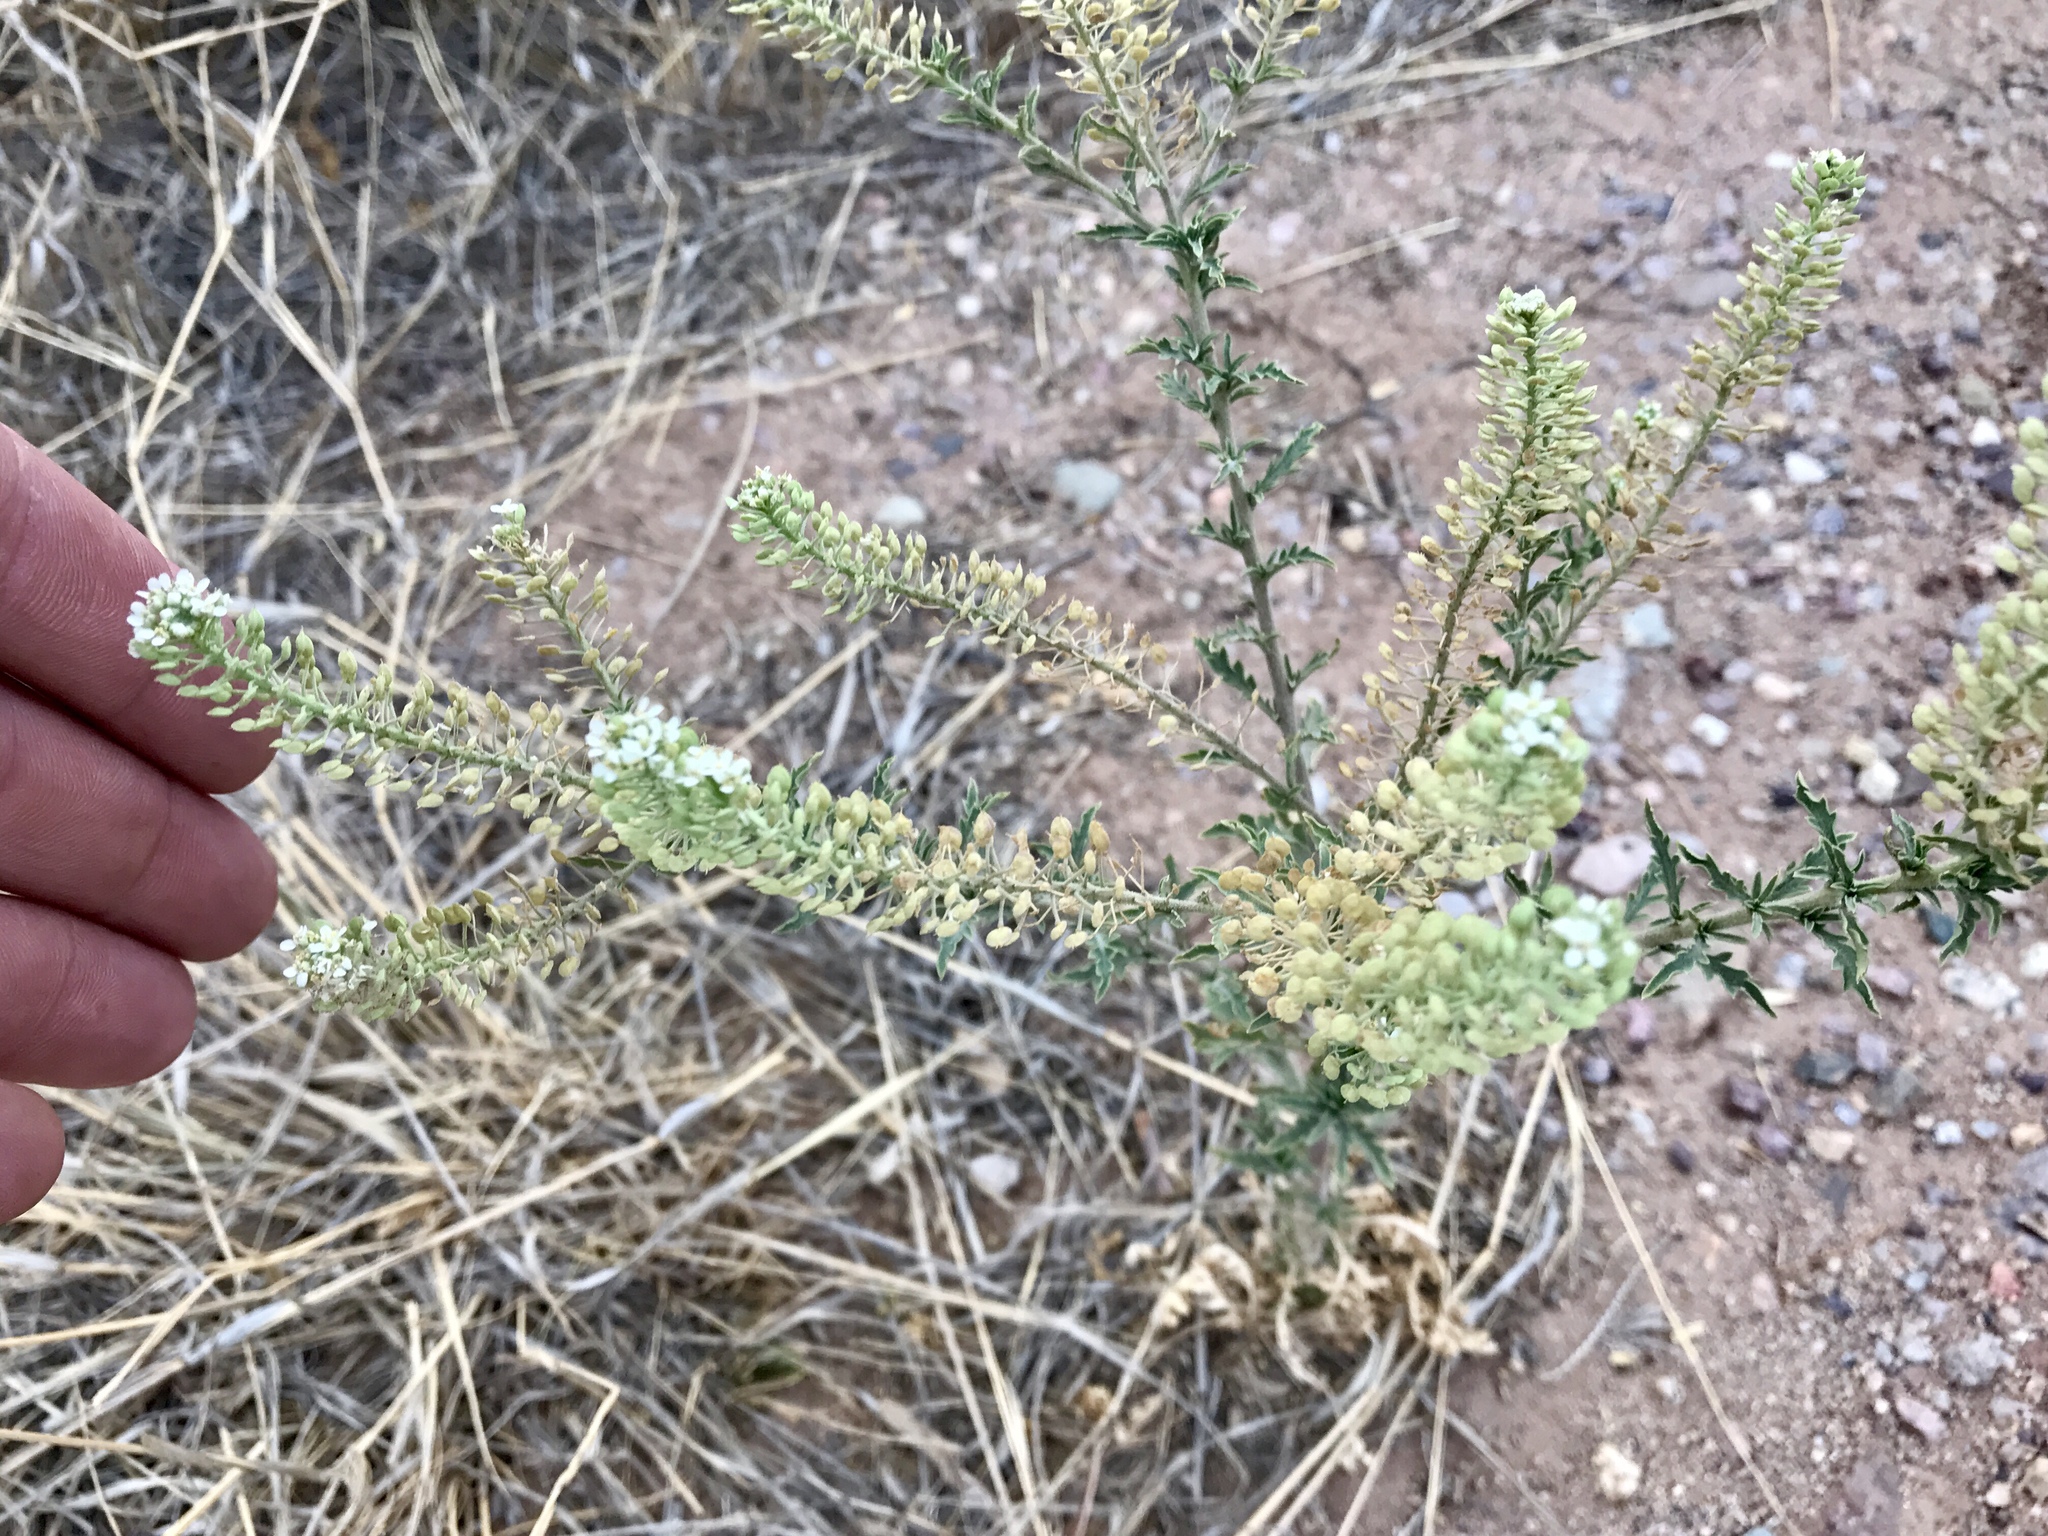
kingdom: Plantae
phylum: Tracheophyta
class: Magnoliopsida
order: Brassicales
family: Brassicaceae
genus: Lepidium
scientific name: Lepidium thurberi
